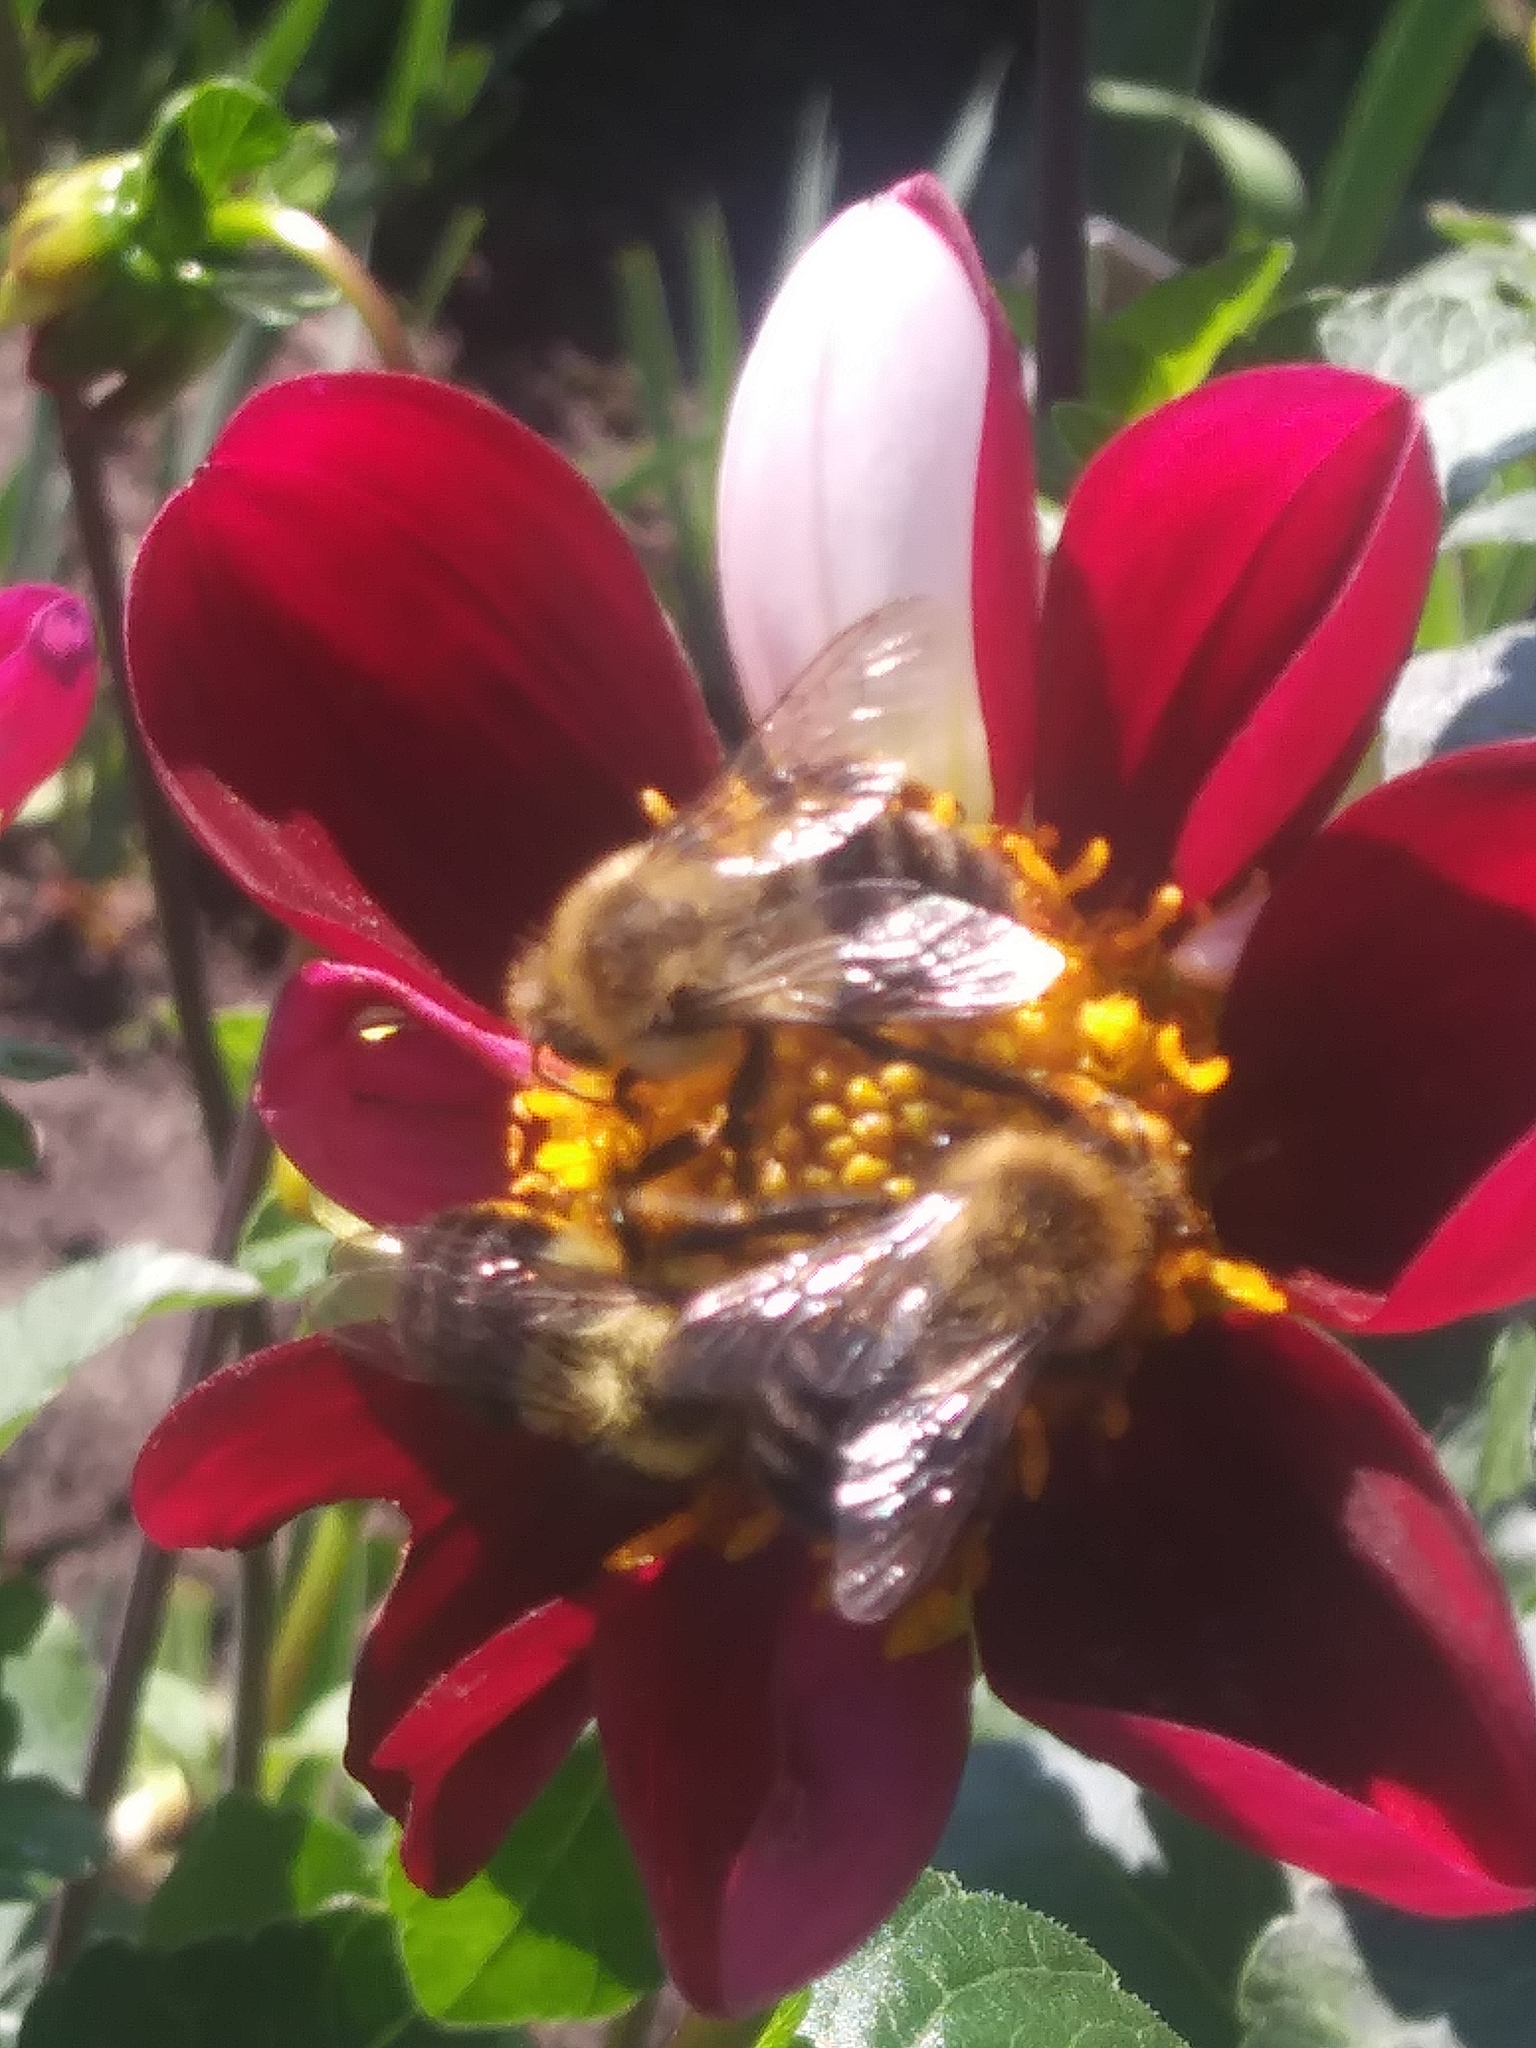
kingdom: Animalia
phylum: Arthropoda
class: Insecta
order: Hymenoptera
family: Apidae
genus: Bombus
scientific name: Bombus impatiens
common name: Common eastern bumble bee
